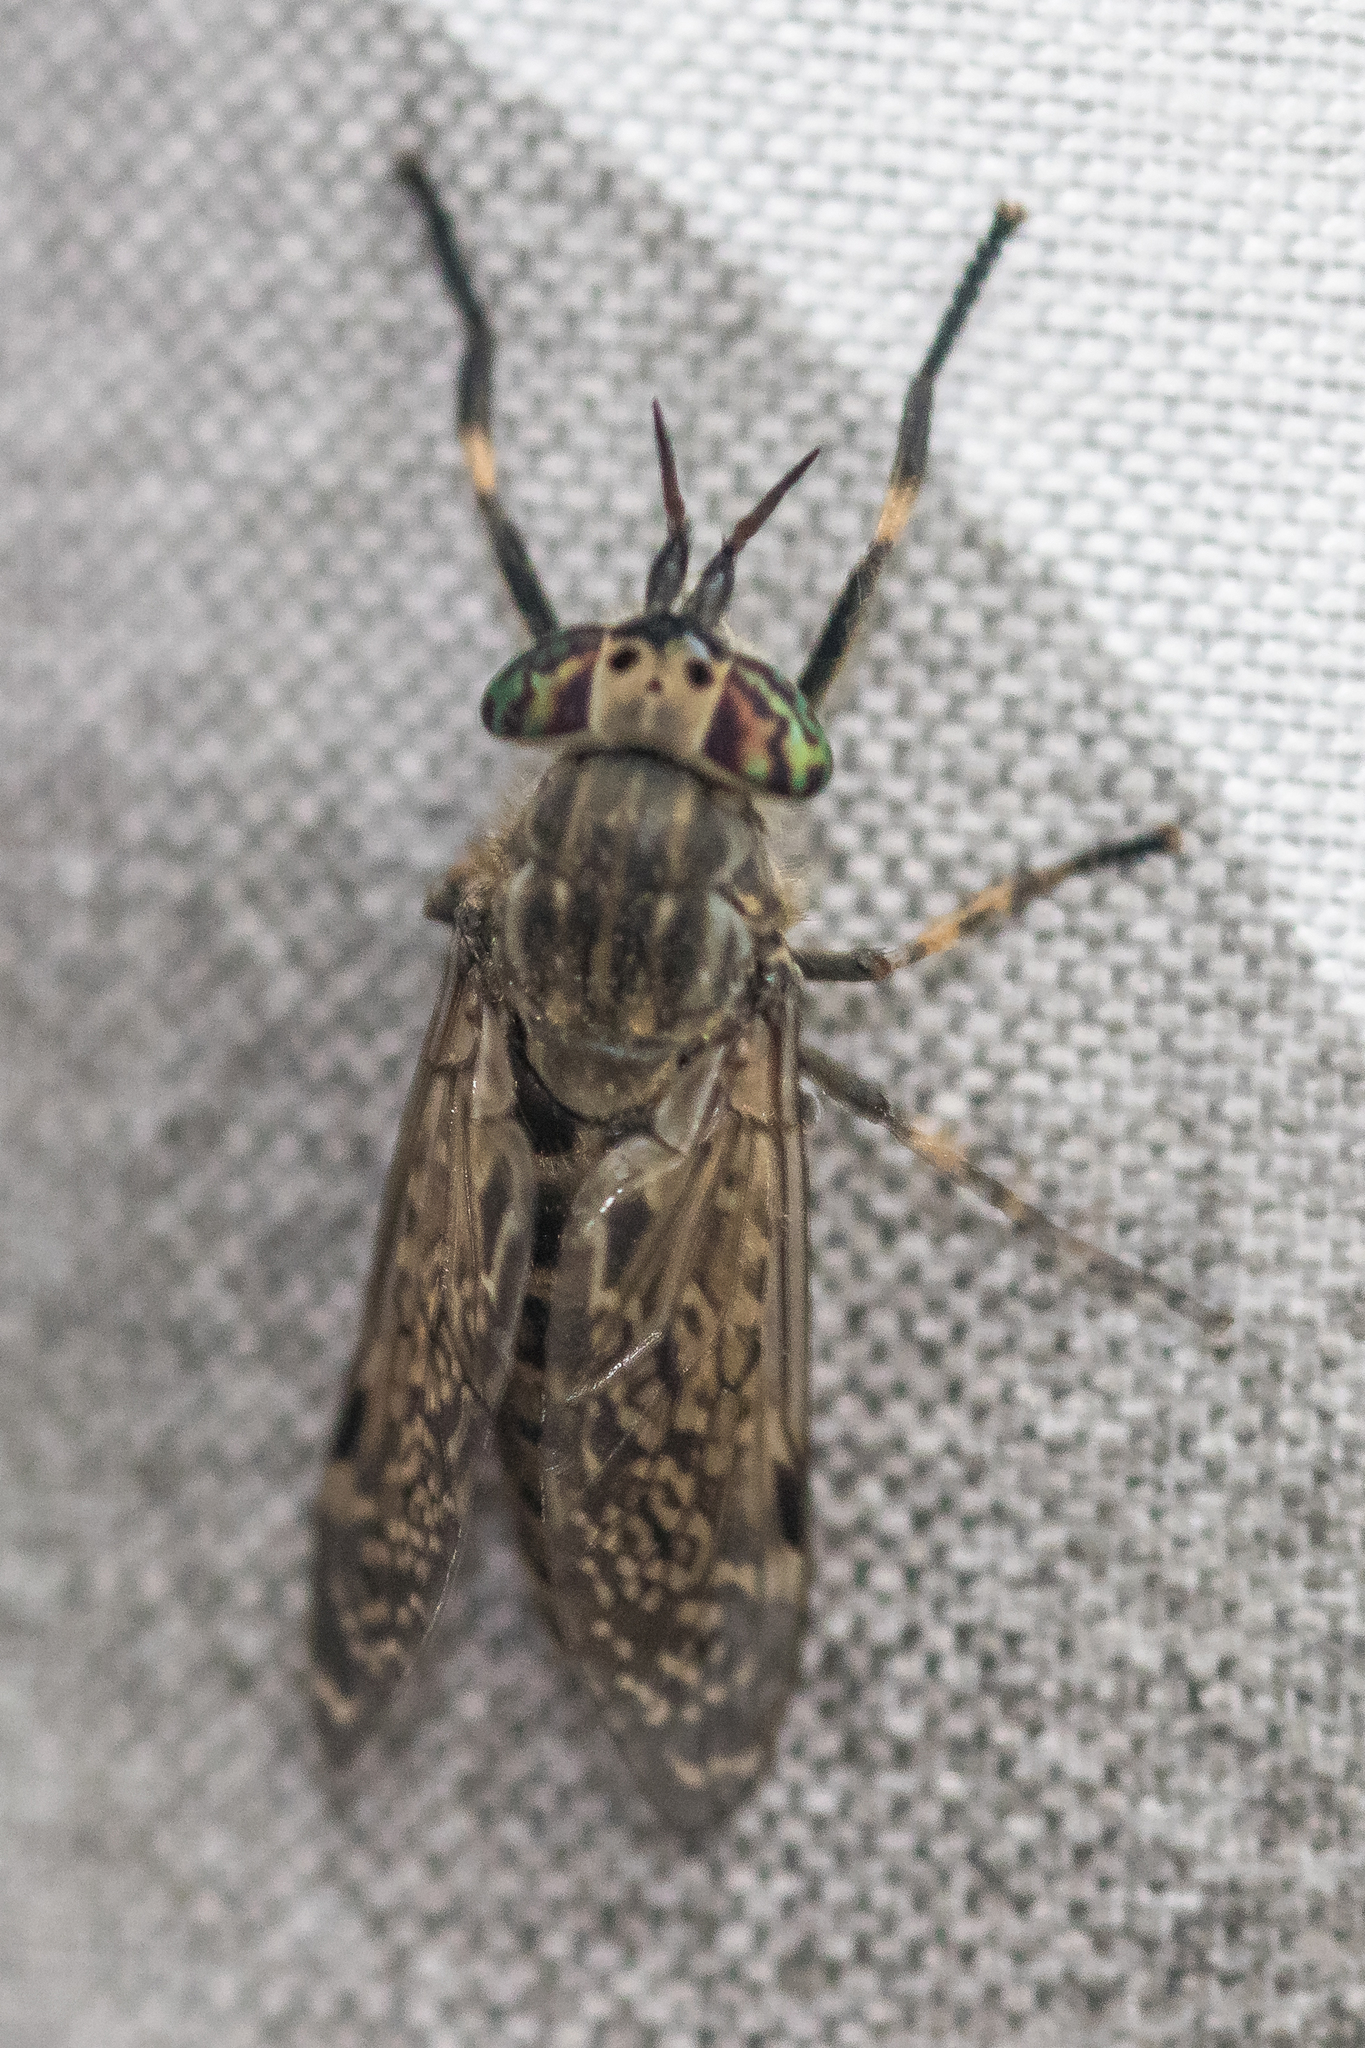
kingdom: Animalia
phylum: Arthropoda
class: Insecta
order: Diptera
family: Tabanidae
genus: Haematopota
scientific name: Haematopota pluvialis
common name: Common horse fly
